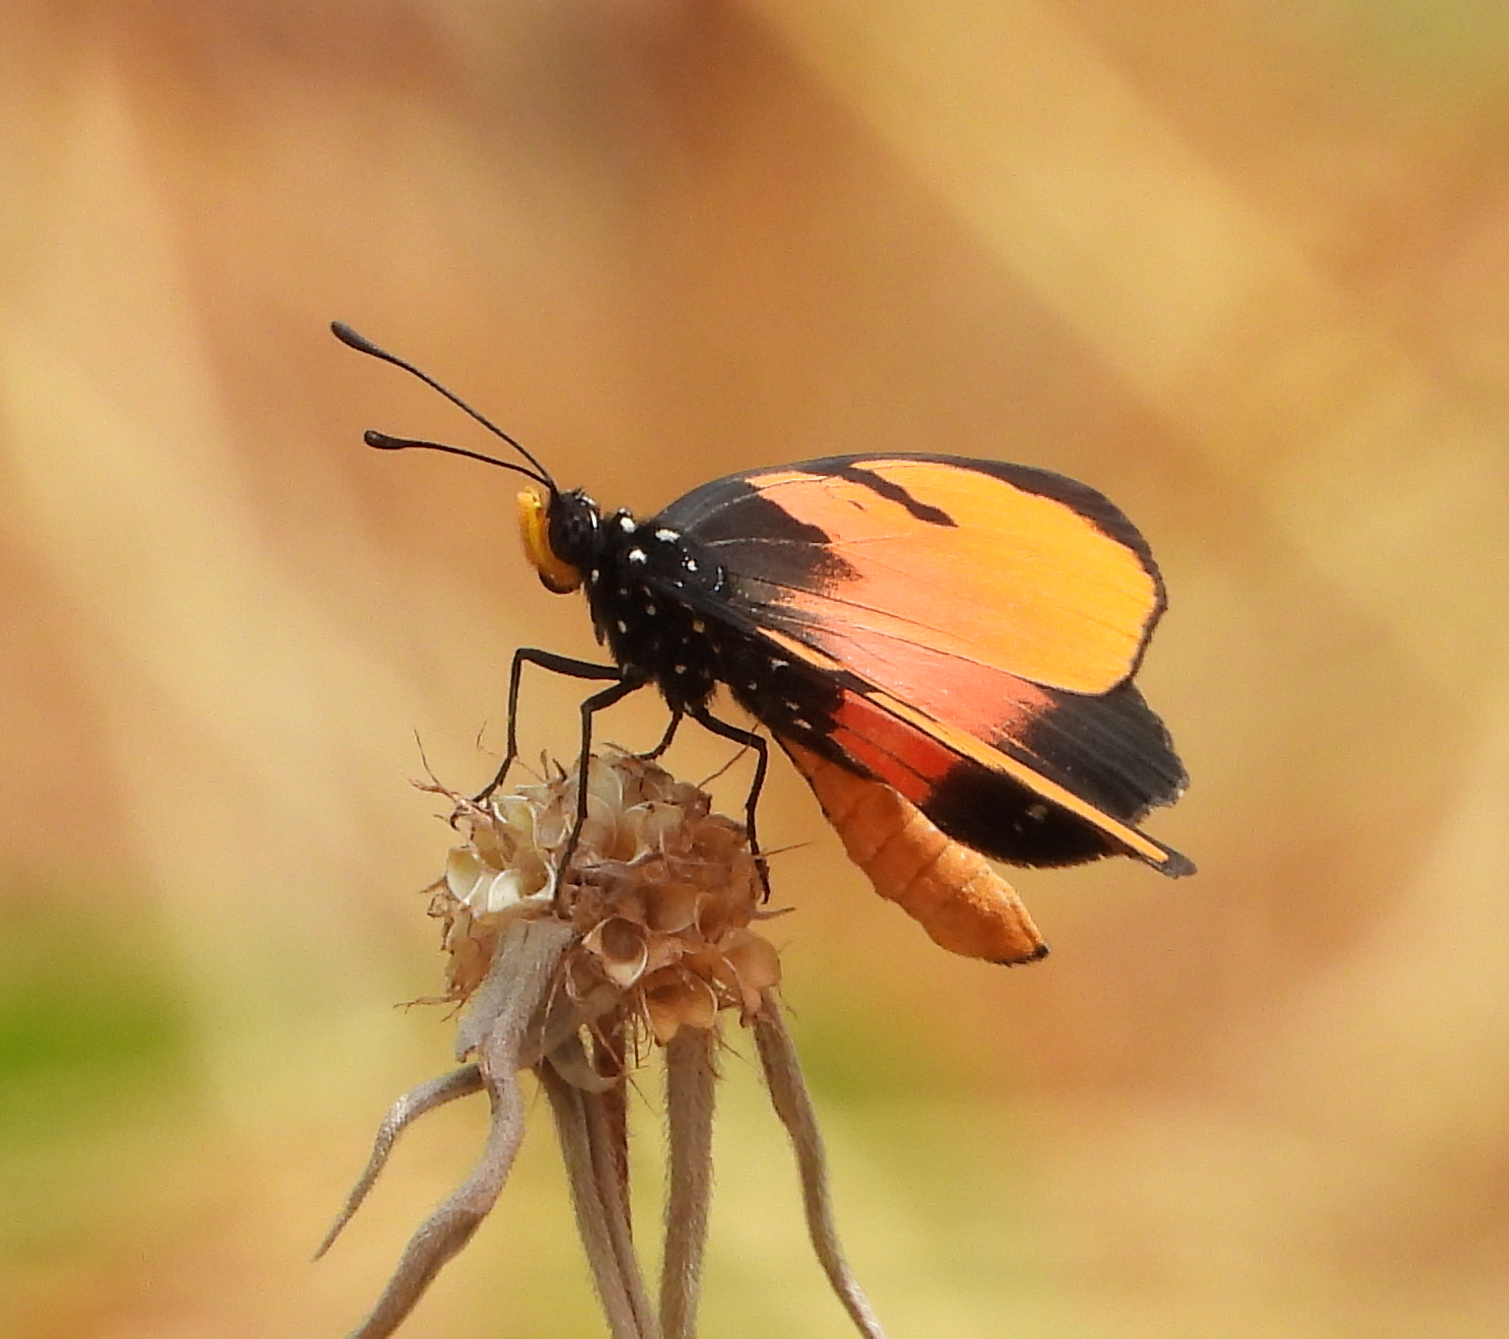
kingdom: Animalia
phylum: Arthropoda
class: Insecta
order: Lepidoptera
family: Nymphalidae
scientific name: Nymphalidae
